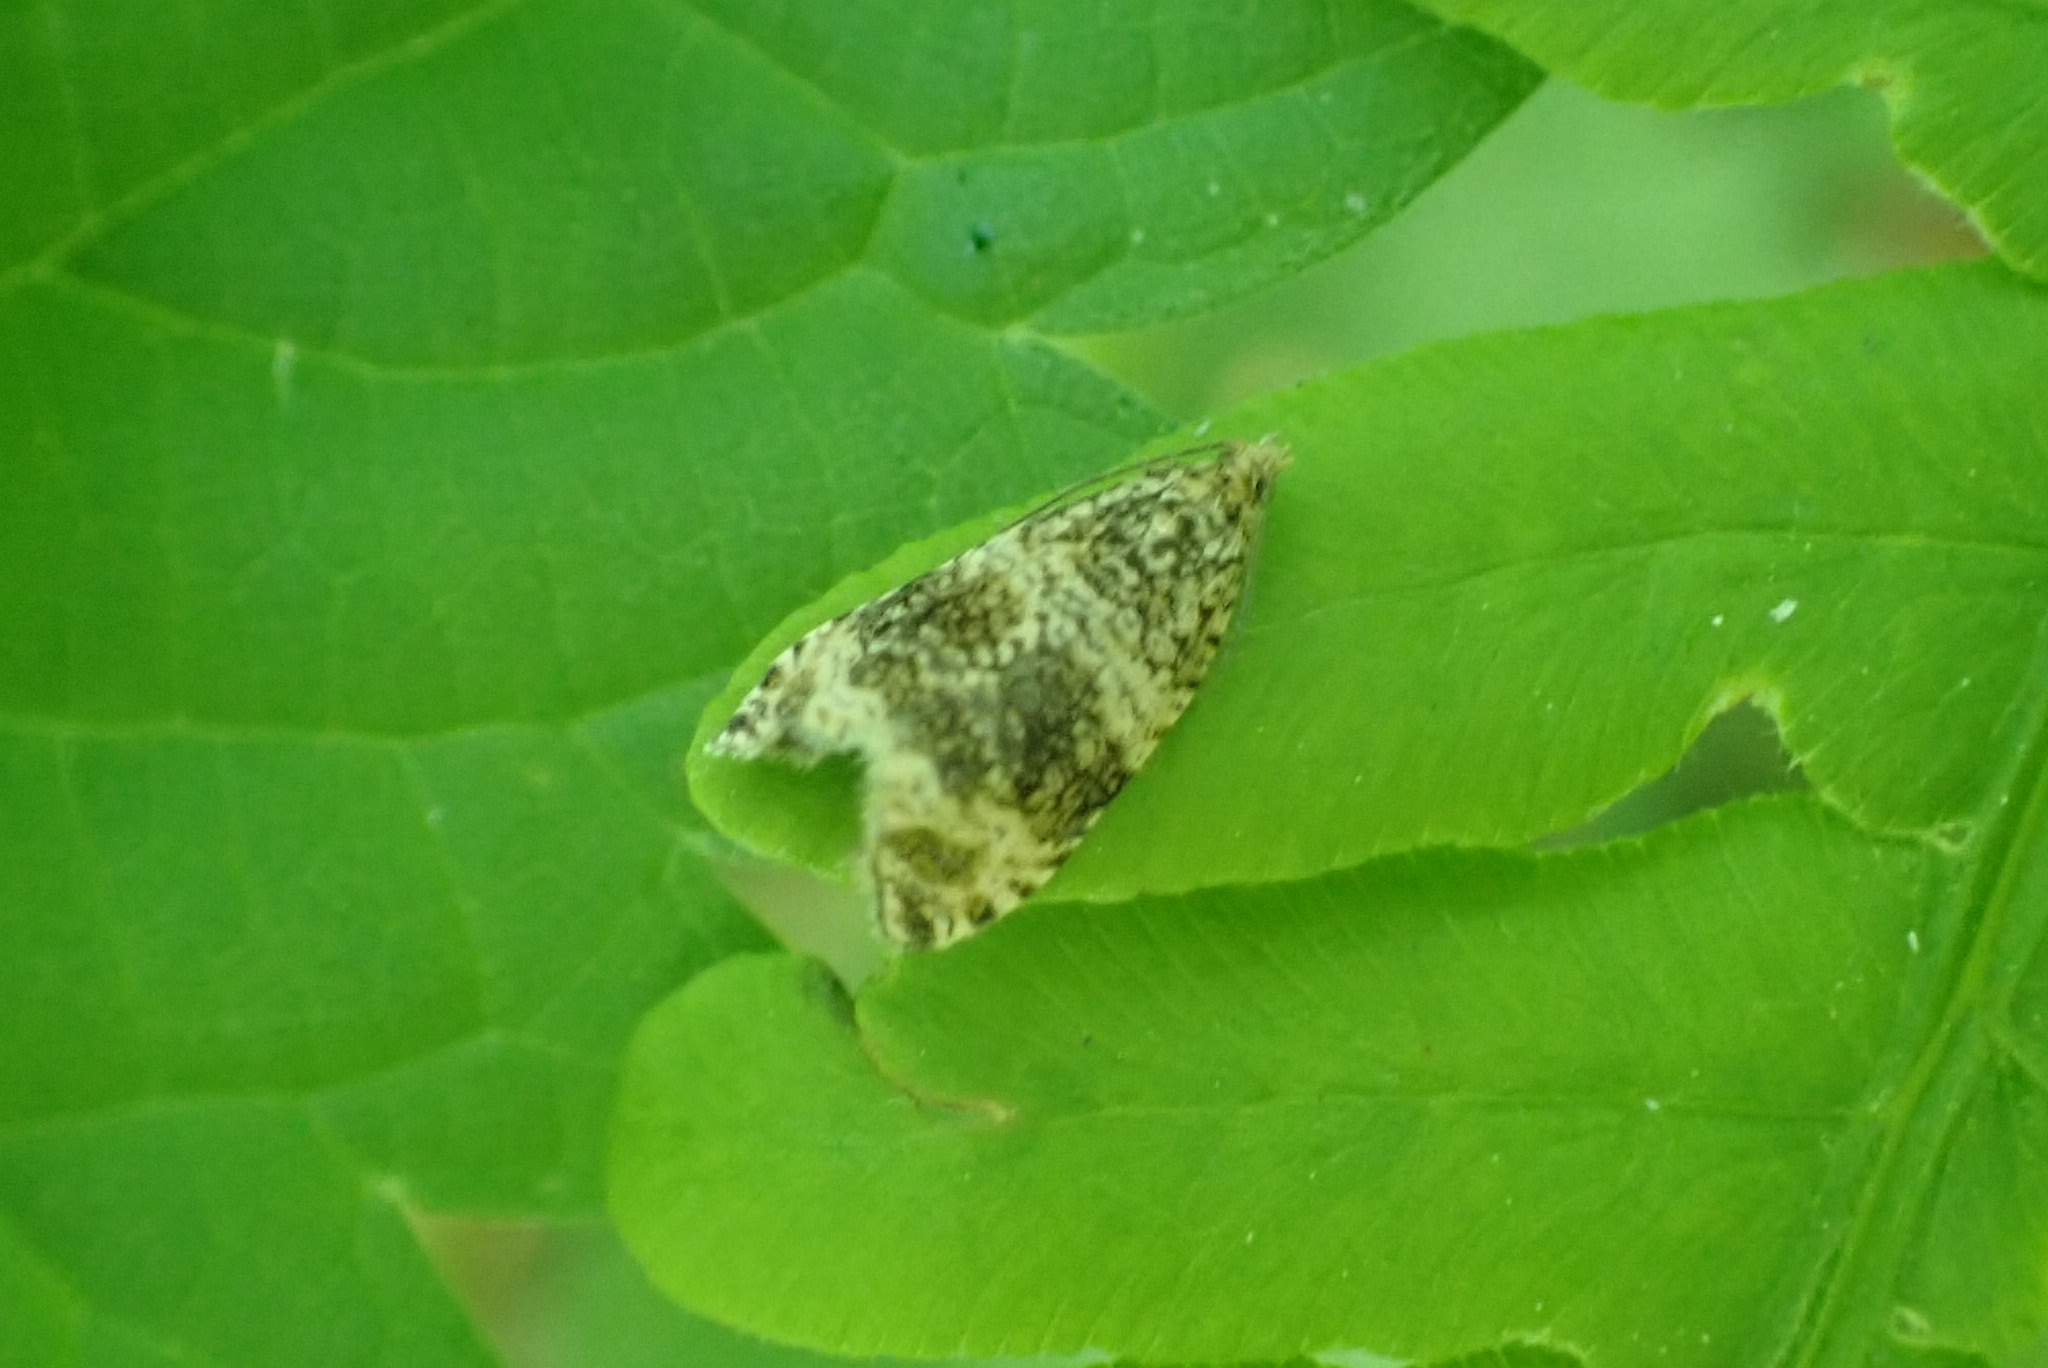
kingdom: Animalia
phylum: Arthropoda
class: Insecta
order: Lepidoptera
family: Tortricidae
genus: Syricoris
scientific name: Syricoris lacunana
